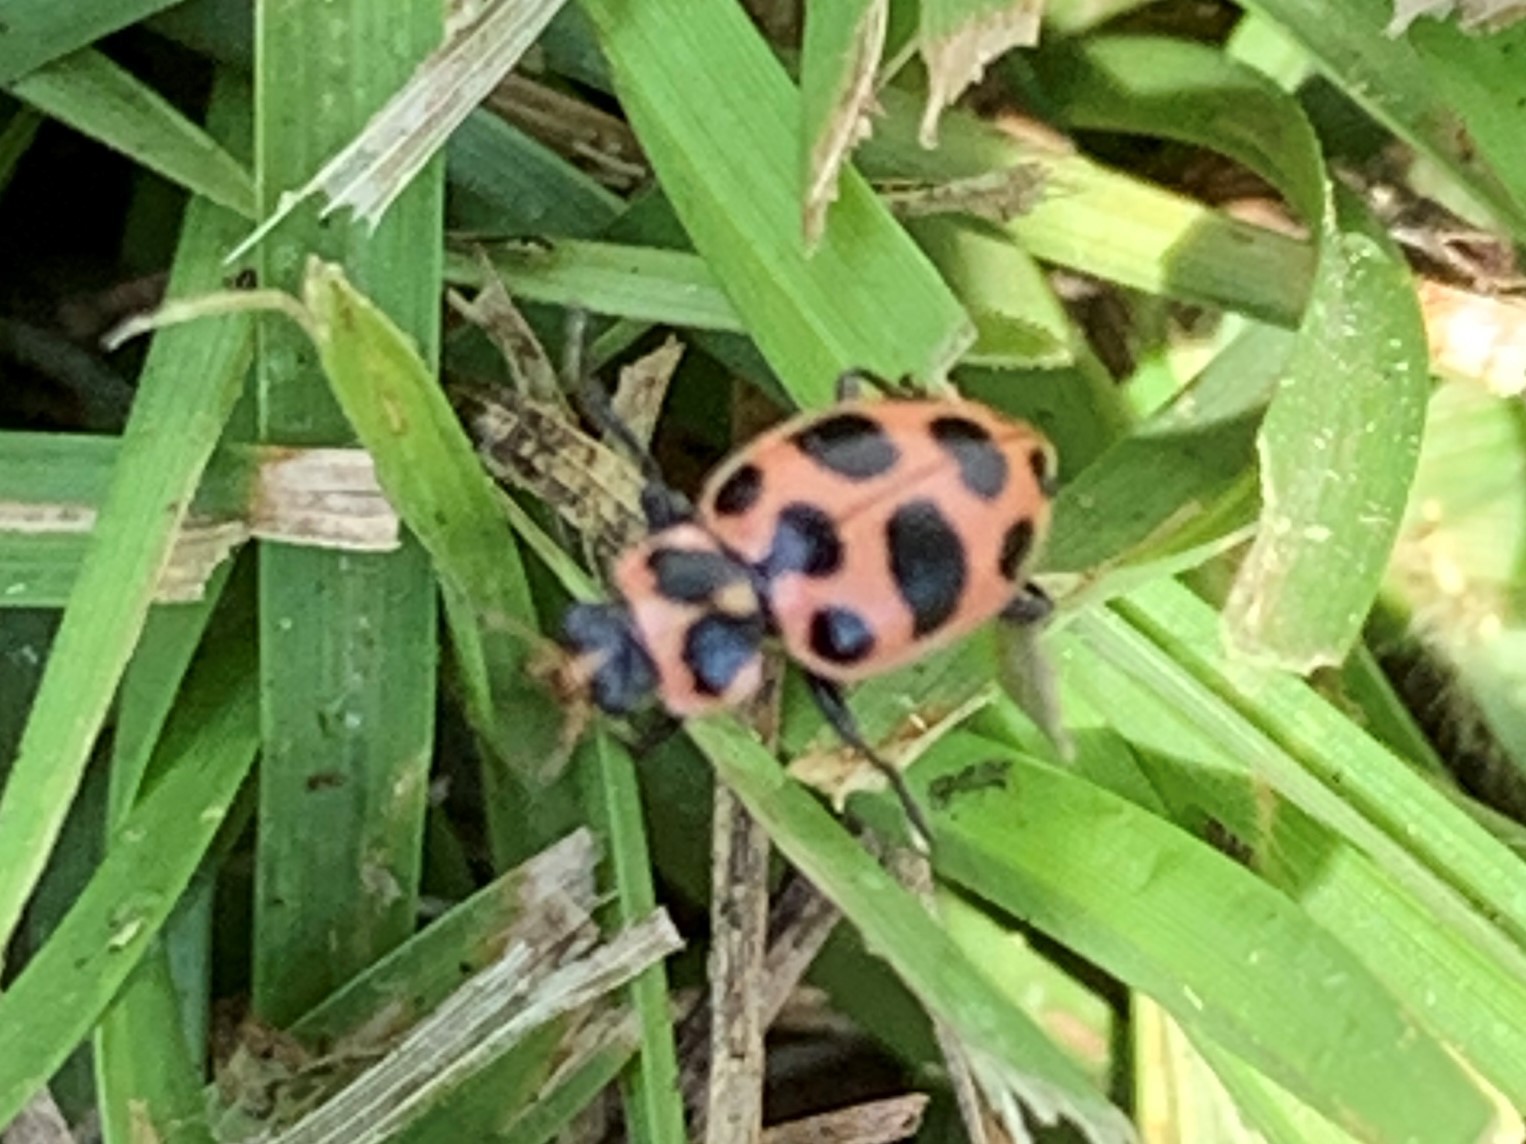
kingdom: Animalia
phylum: Arthropoda
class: Insecta
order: Coleoptera
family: Coccinellidae
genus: Coleomegilla
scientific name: Coleomegilla maculata
